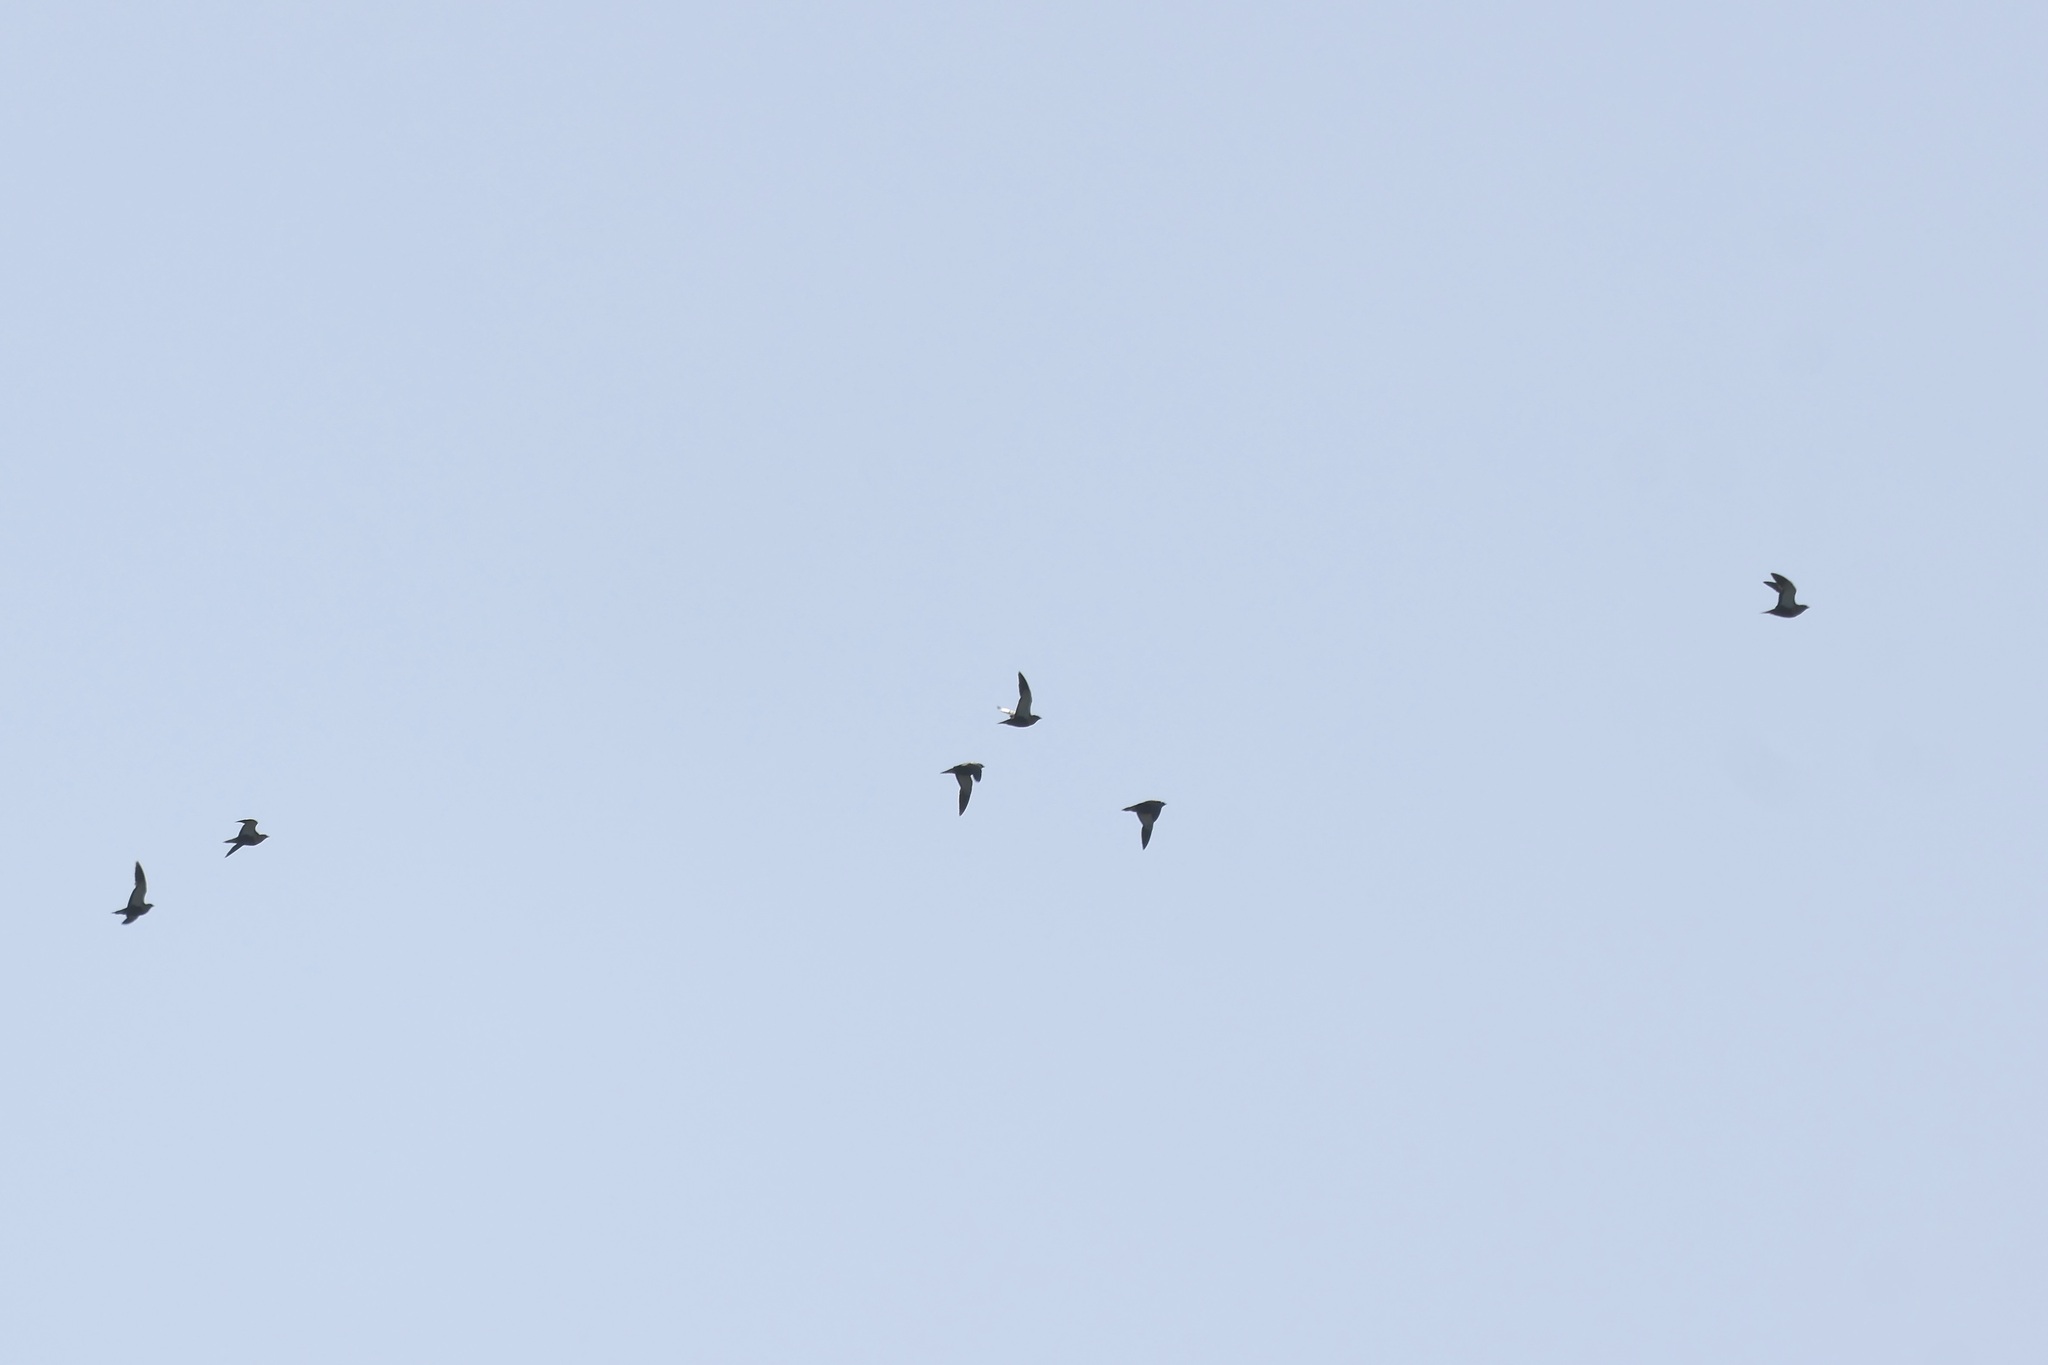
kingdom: Animalia
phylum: Chordata
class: Aves
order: Pteroclidiformes
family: Pteroclididae
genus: Pterocles
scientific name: Pterocles orientalis
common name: Black-bellied sandgrouse
